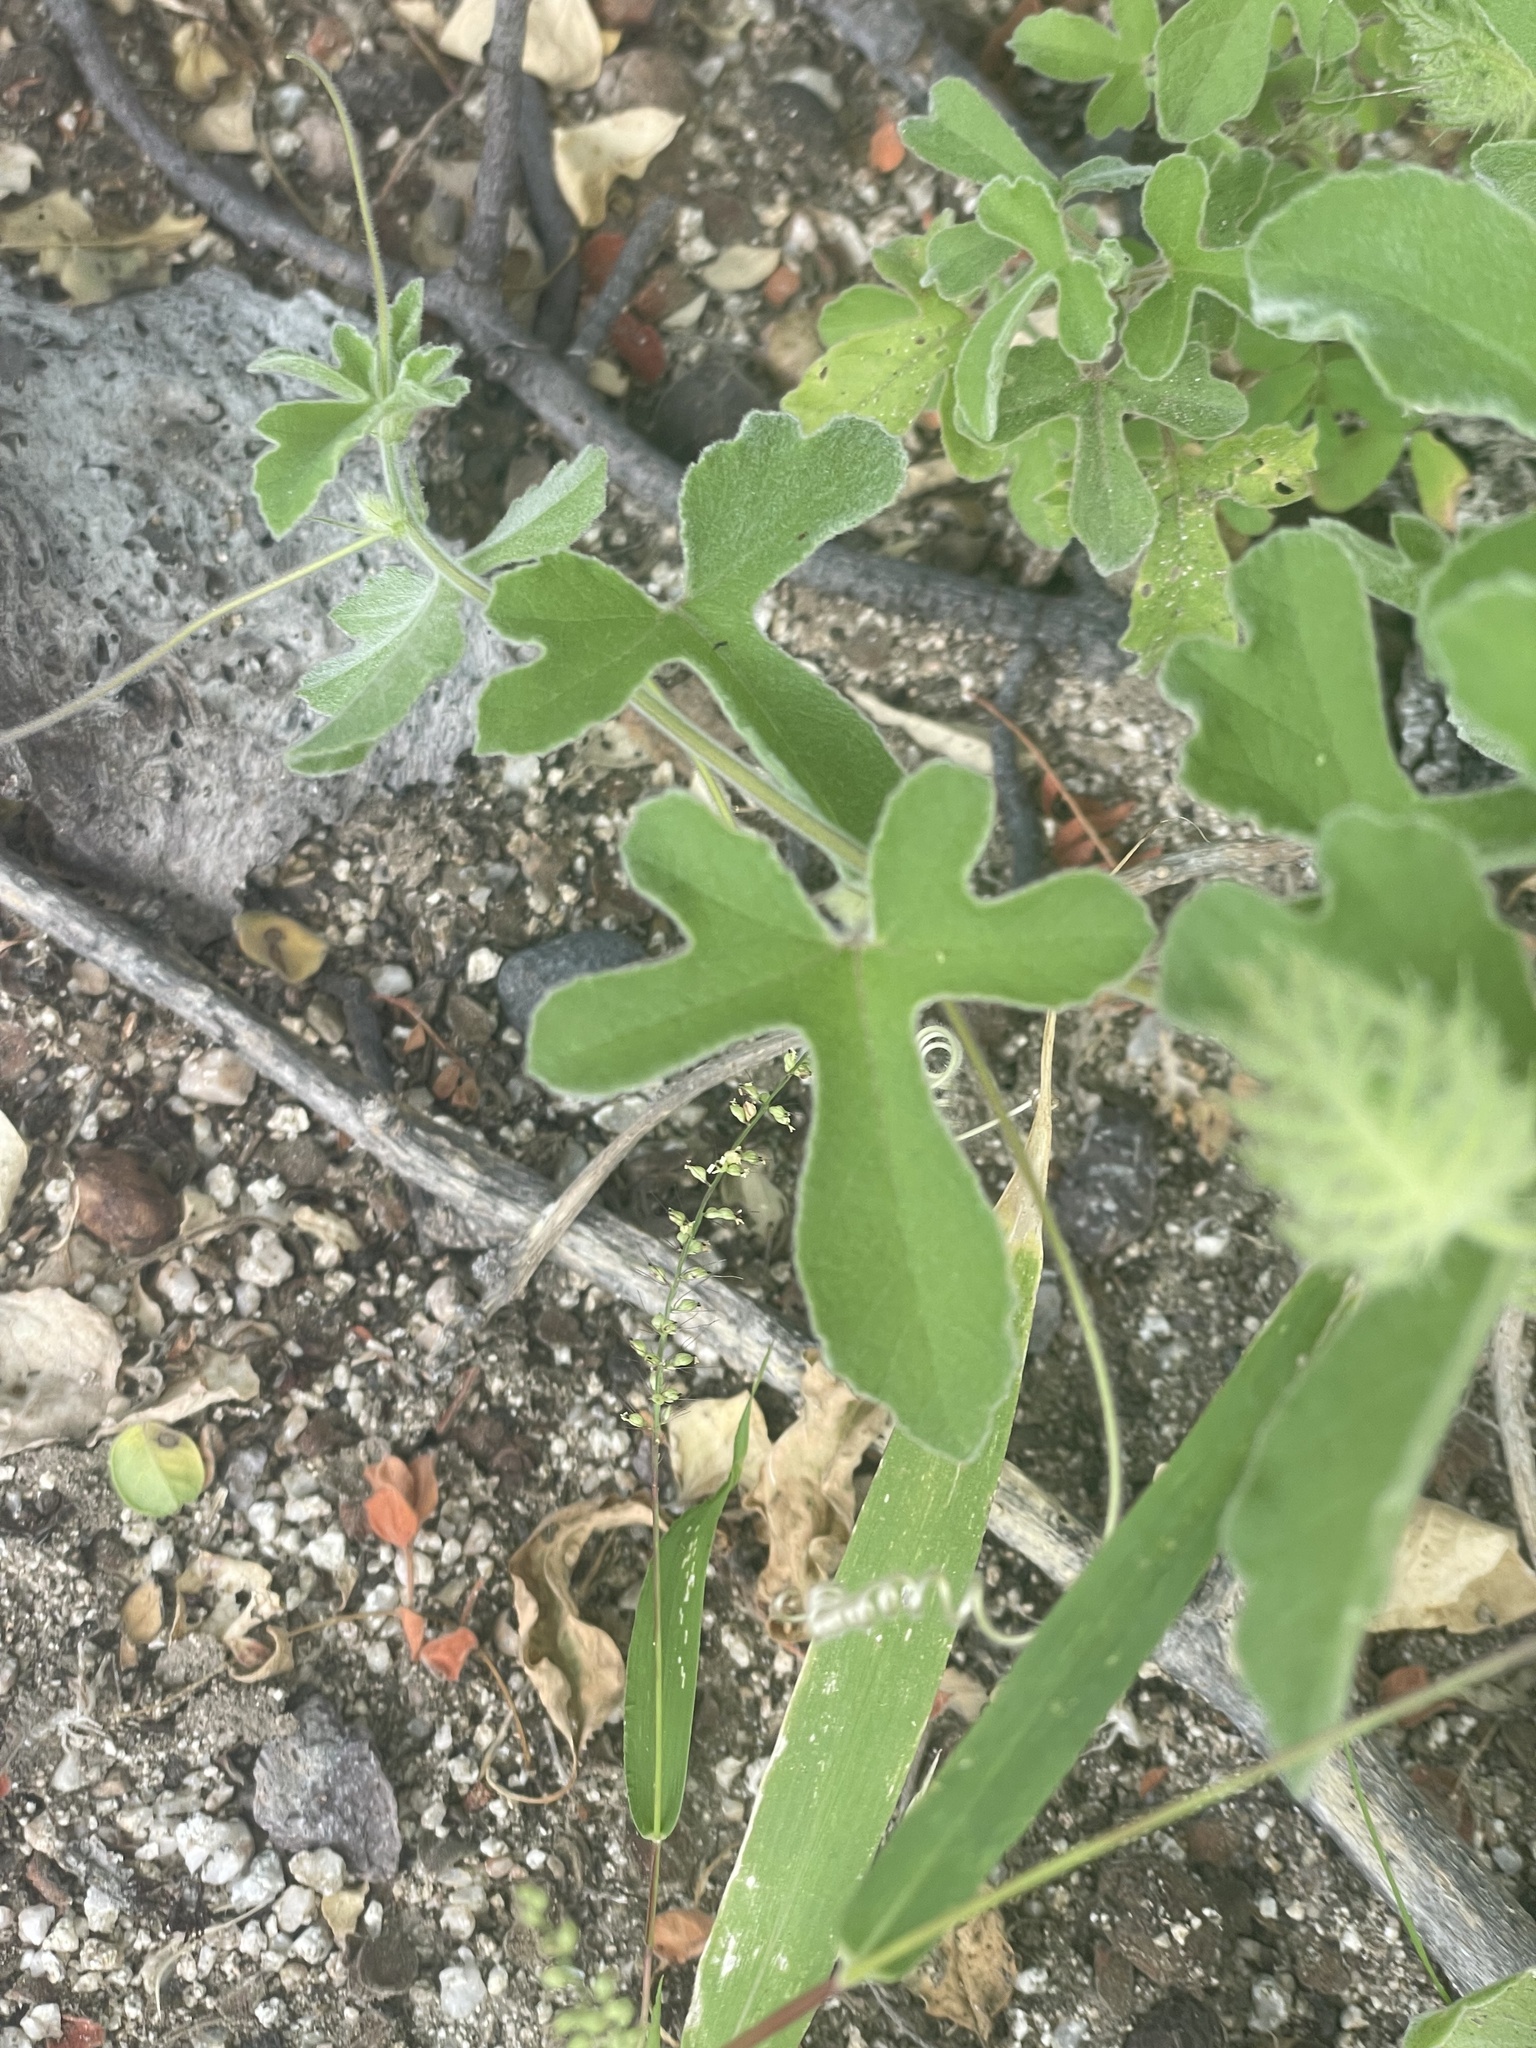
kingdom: Plantae
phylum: Tracheophyta
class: Magnoliopsida
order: Malpighiales
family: Passifloraceae
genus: Passiflora
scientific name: Passiflora pentaschista
